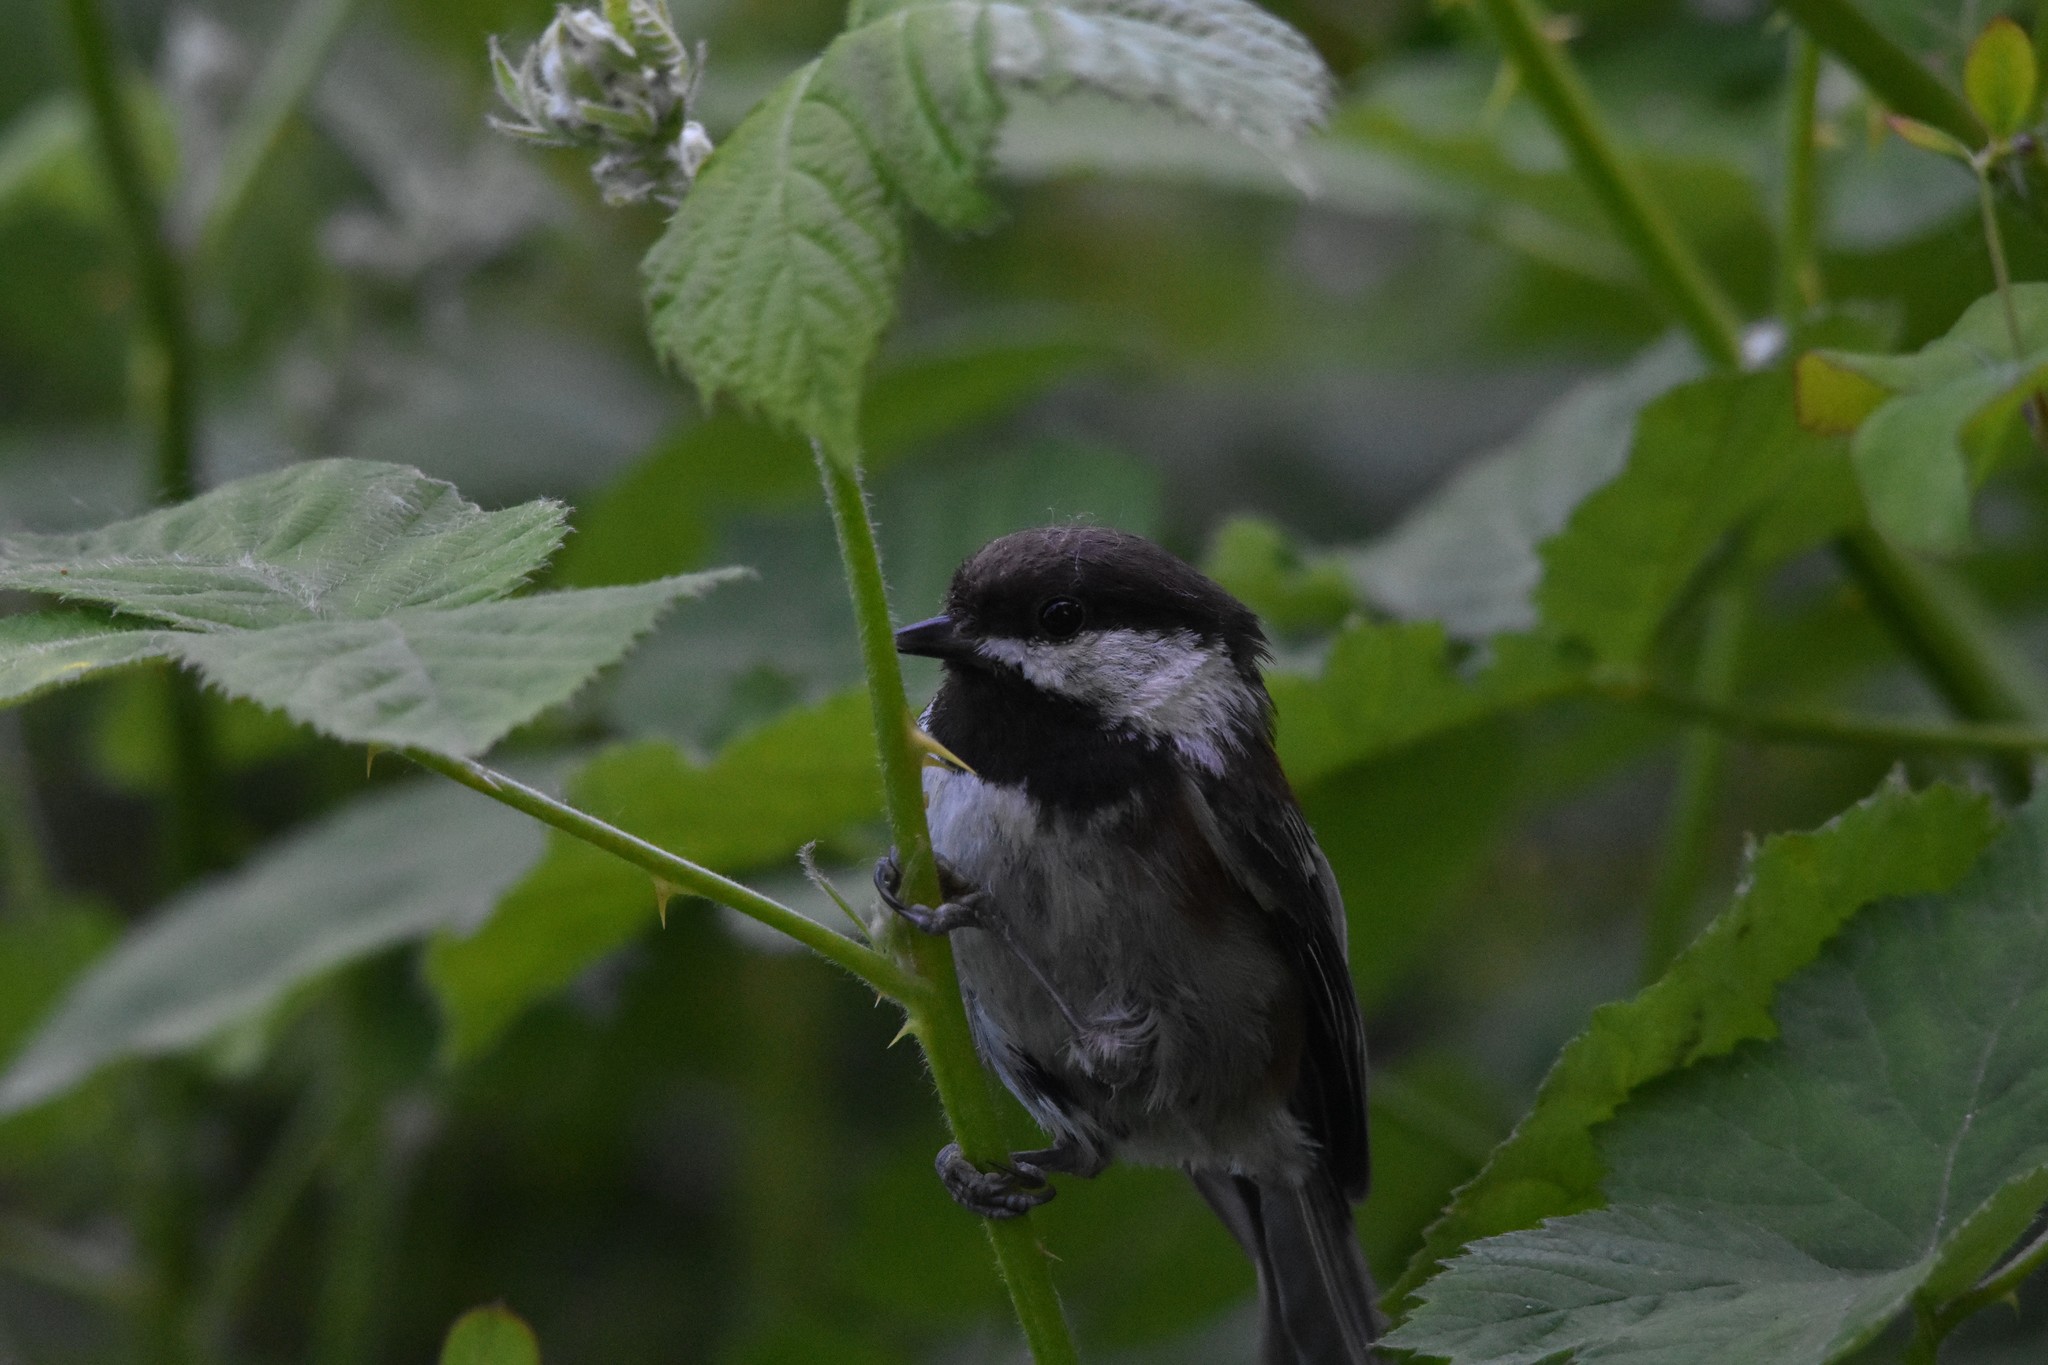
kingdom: Animalia
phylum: Chordata
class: Aves
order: Passeriformes
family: Paridae
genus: Poecile
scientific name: Poecile rufescens
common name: Chestnut-backed chickadee
